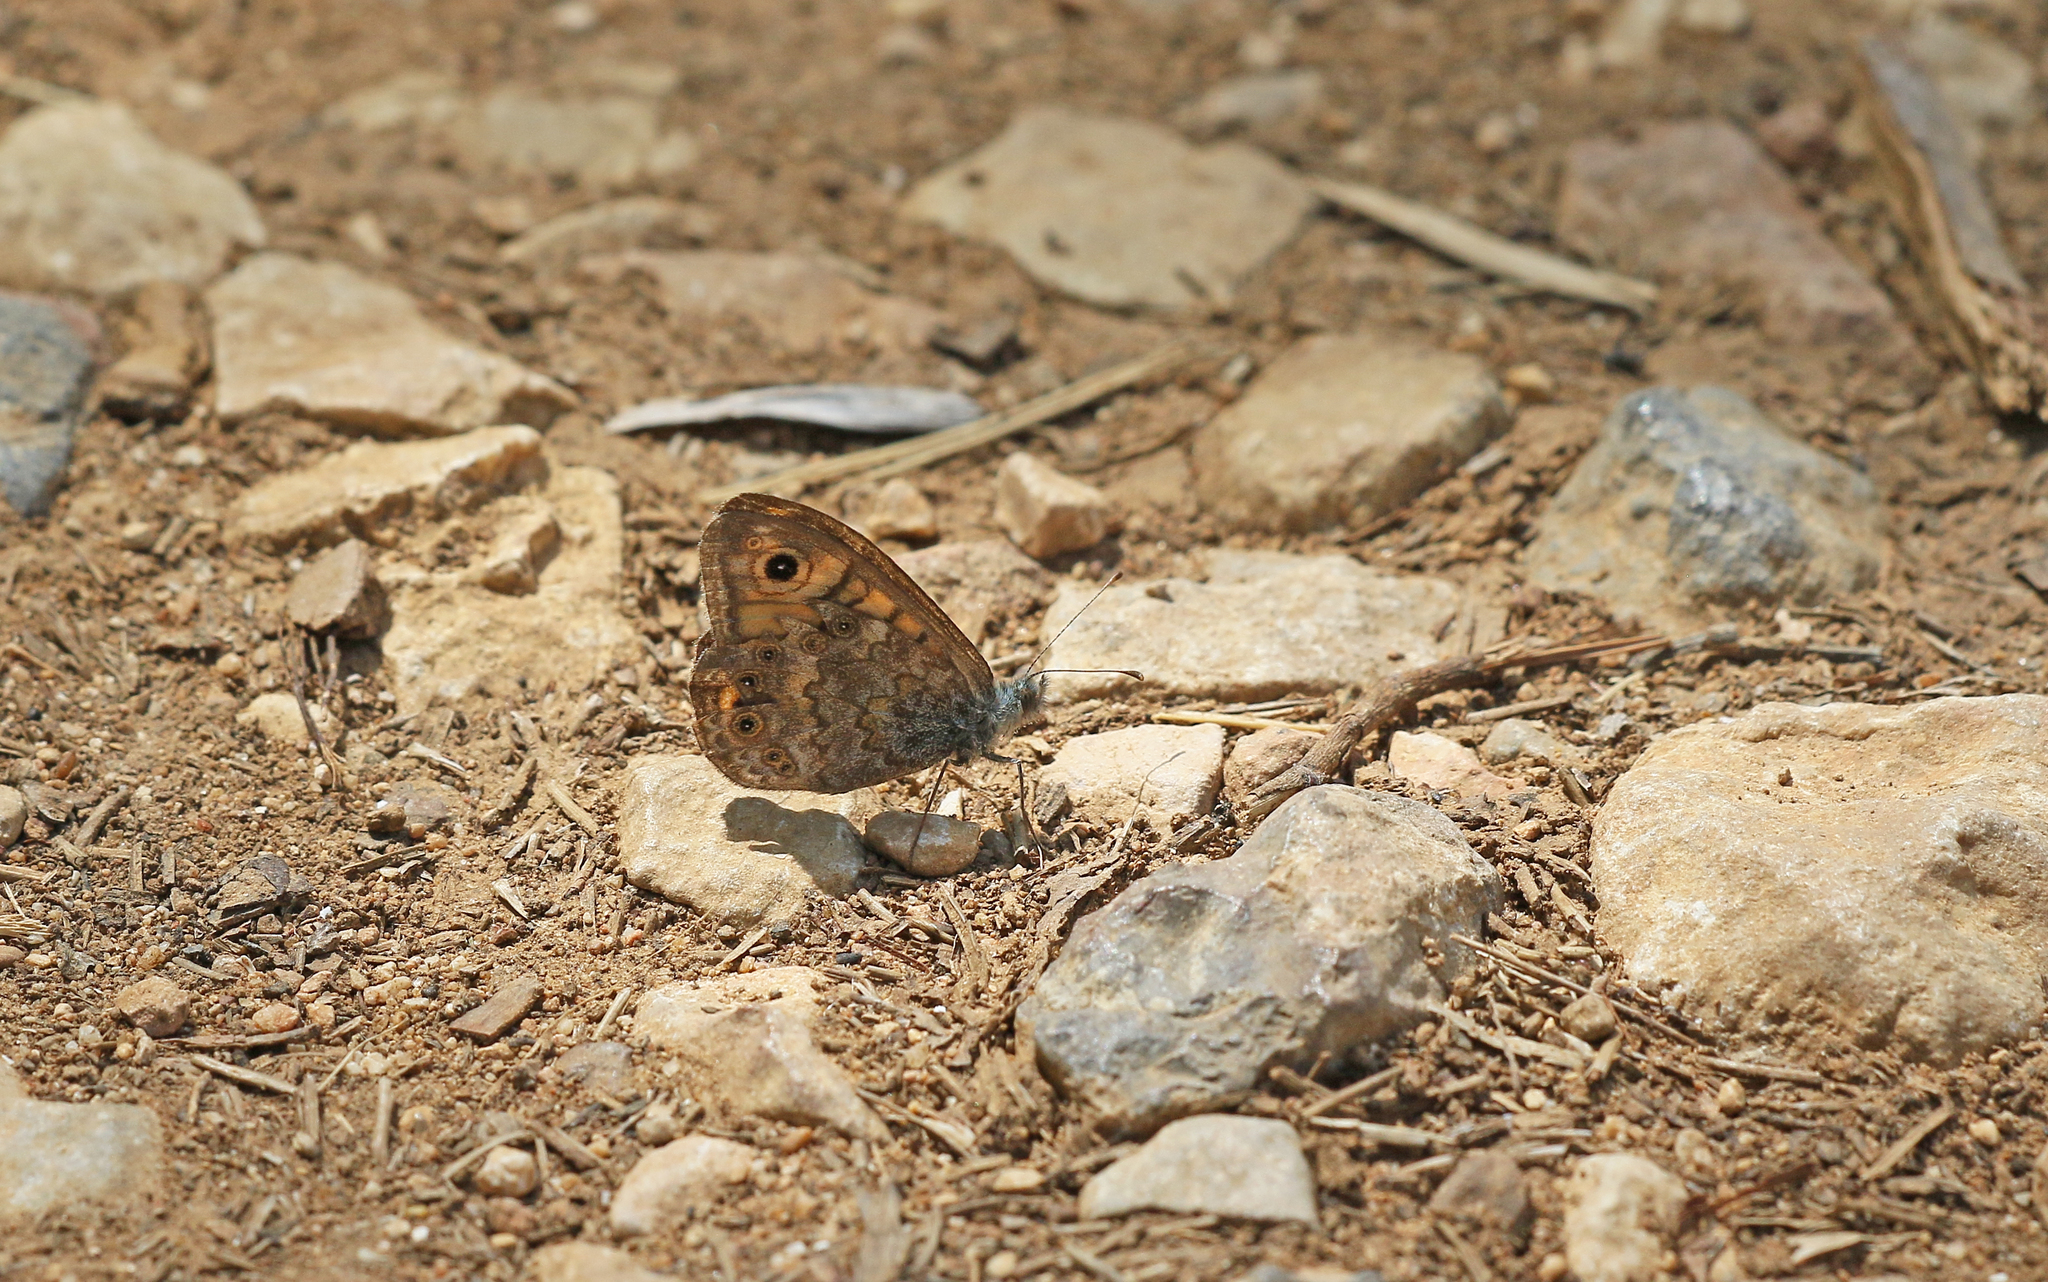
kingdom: Animalia
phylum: Arthropoda
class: Insecta
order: Lepidoptera
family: Nymphalidae
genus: Pararge
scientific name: Pararge Lasiommata megera
